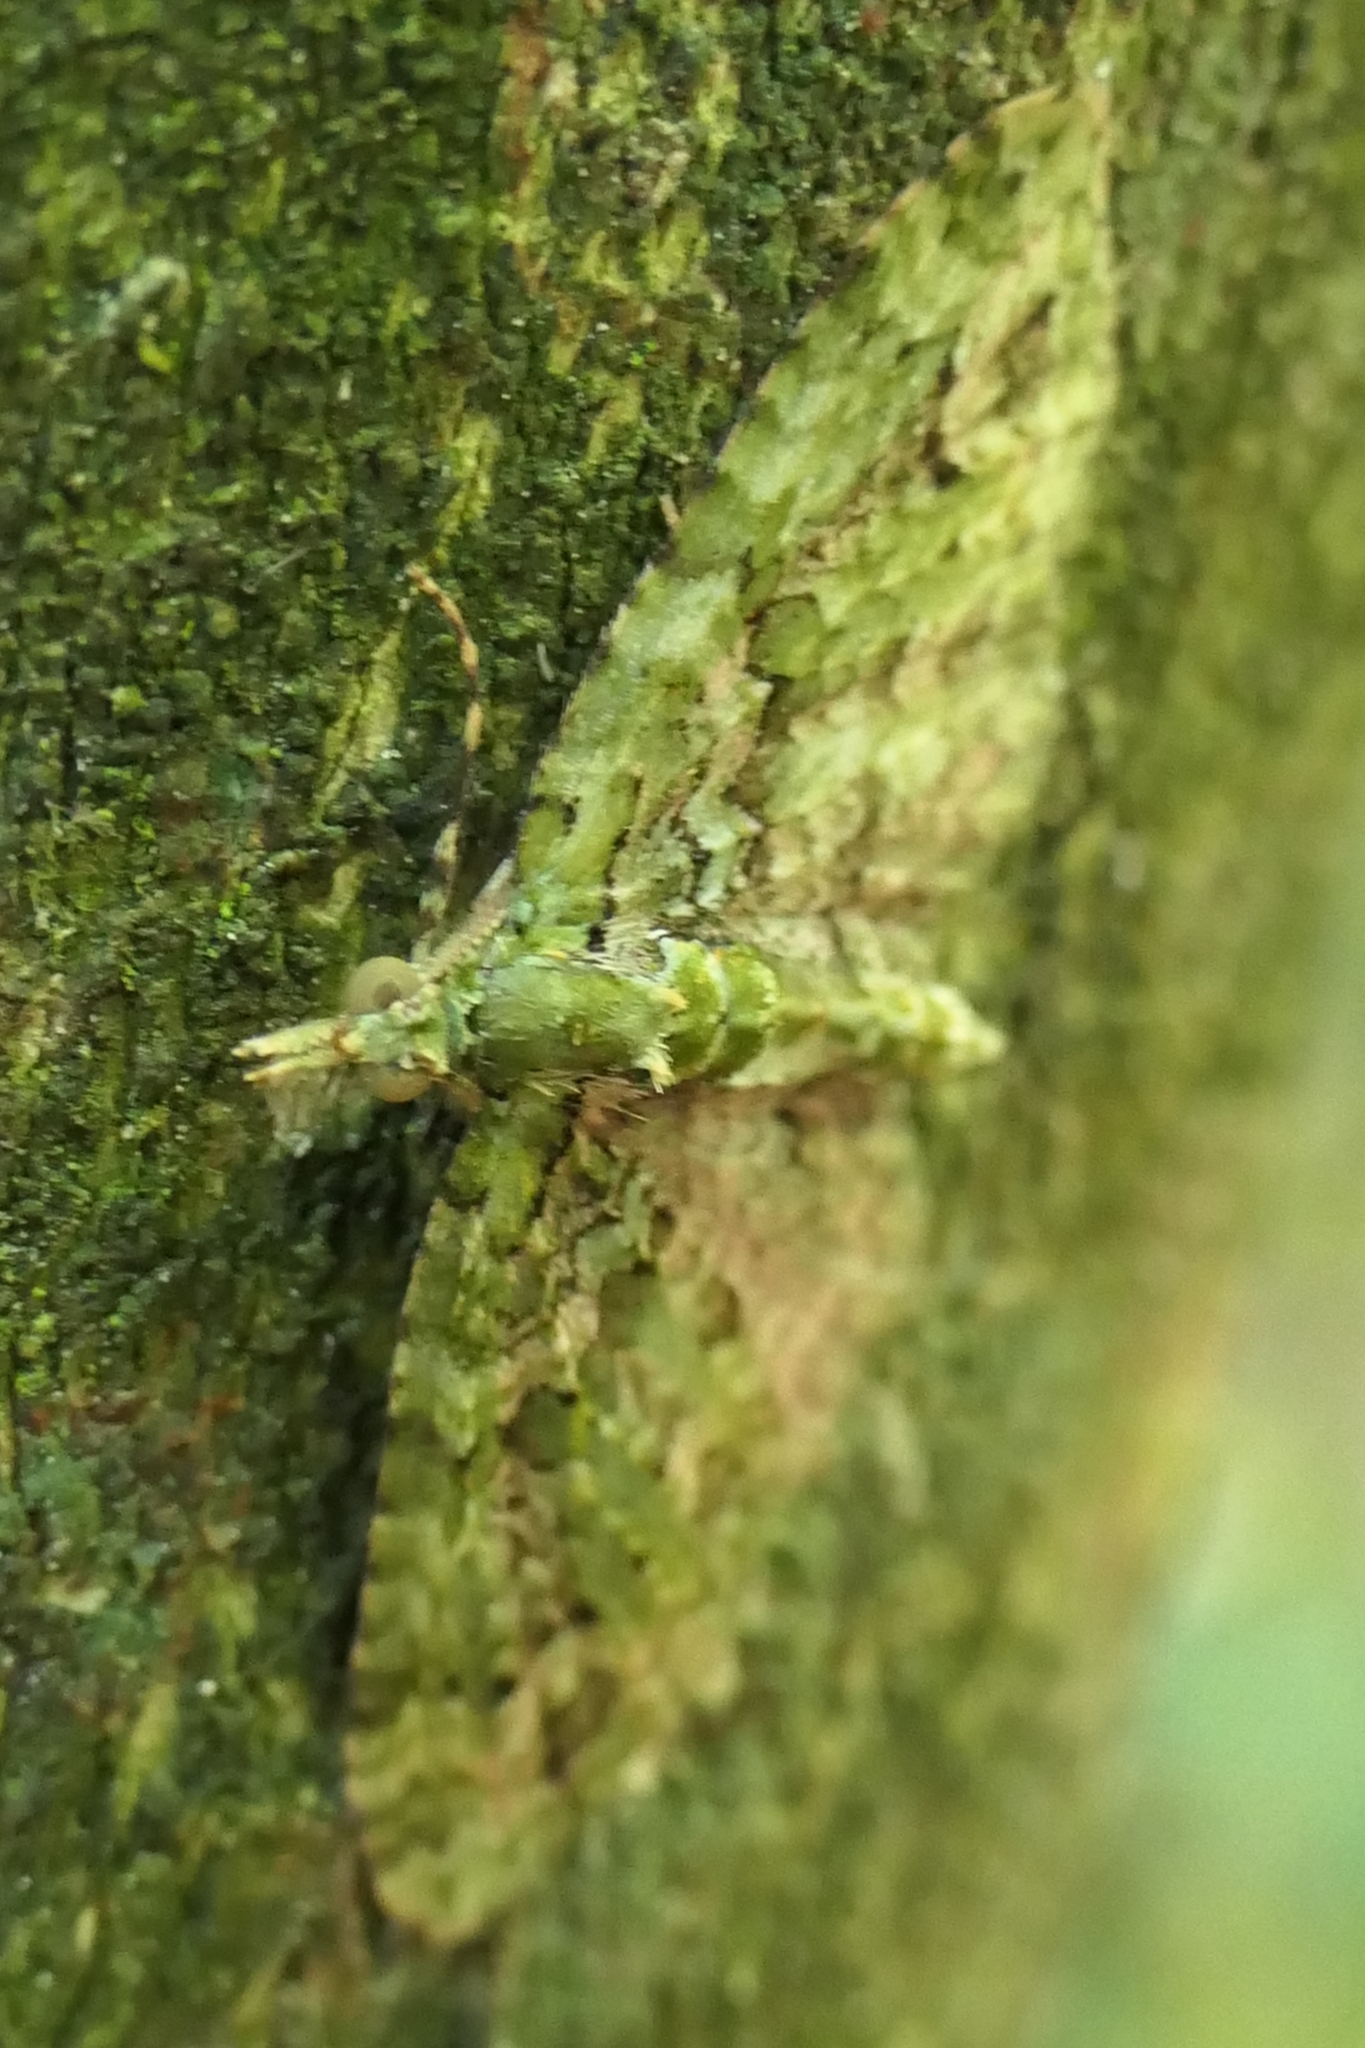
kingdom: Animalia
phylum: Arthropoda
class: Insecta
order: Lepidoptera
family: Geometridae
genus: Pasiphila
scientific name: Pasiphila muscosata
